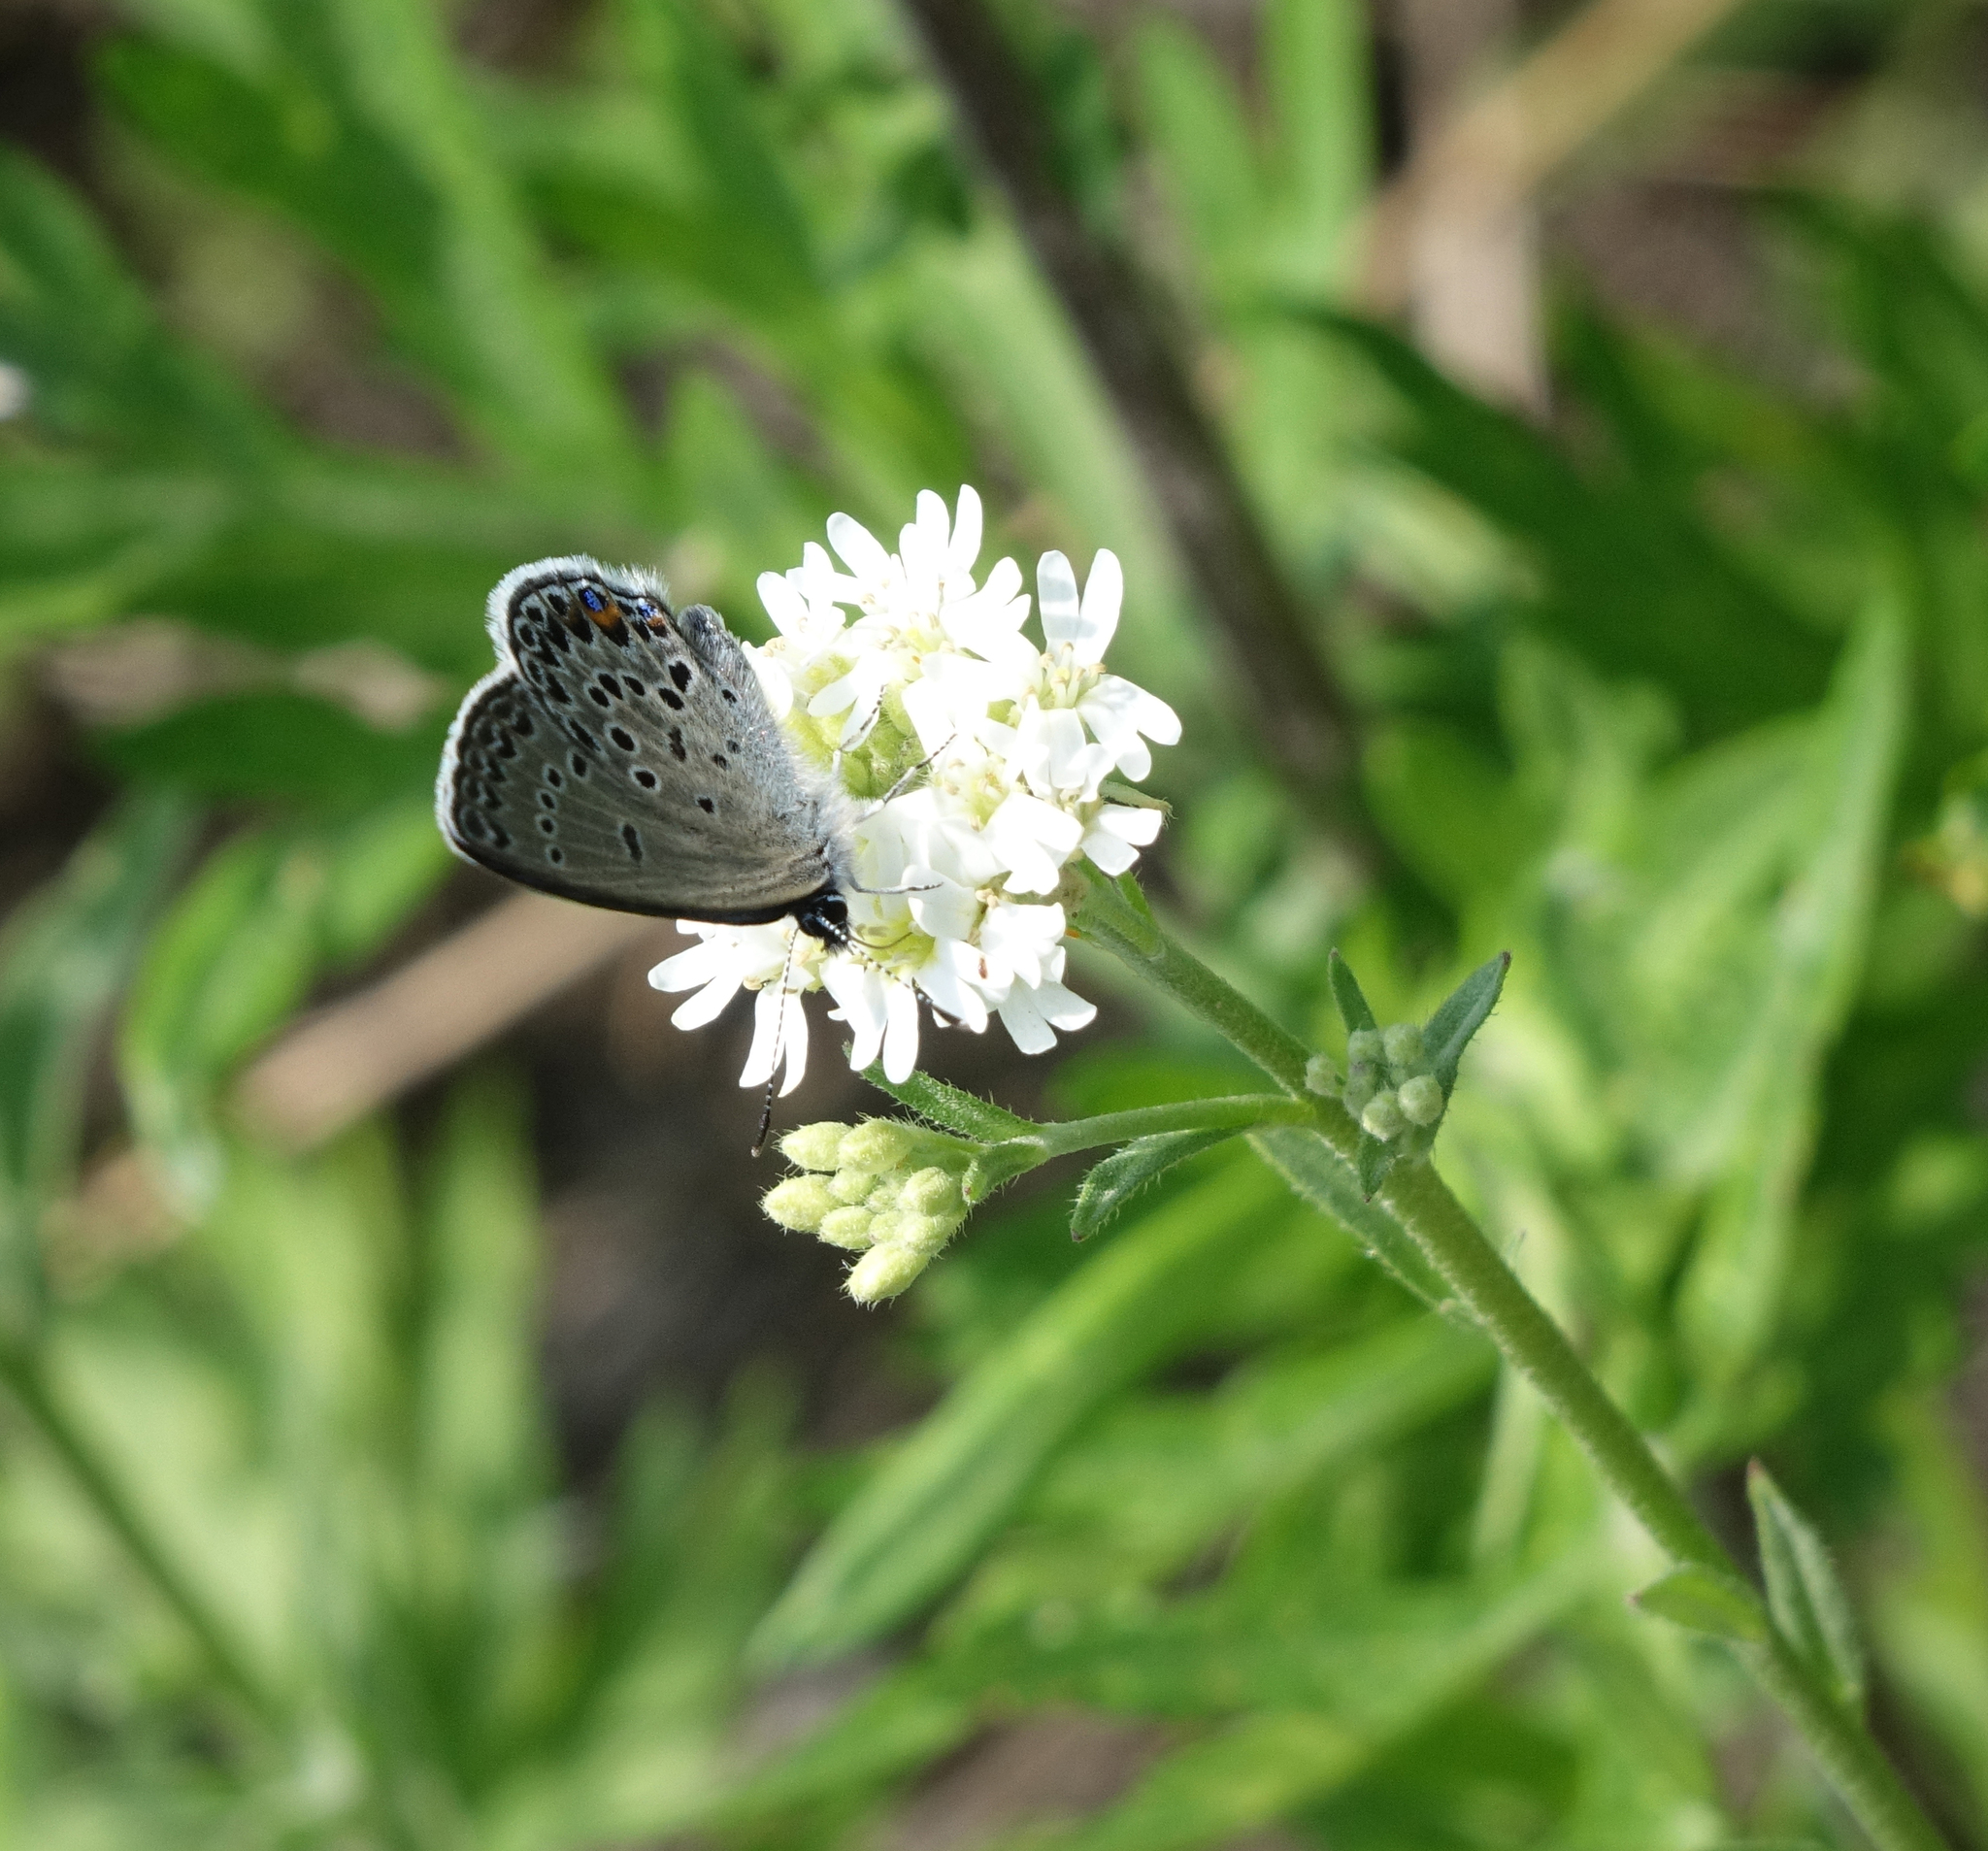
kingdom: Animalia
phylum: Arthropoda
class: Insecta
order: Lepidoptera
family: Lycaenidae
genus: Vacciniina
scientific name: Vacciniina optilete
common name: Cranberry blue
